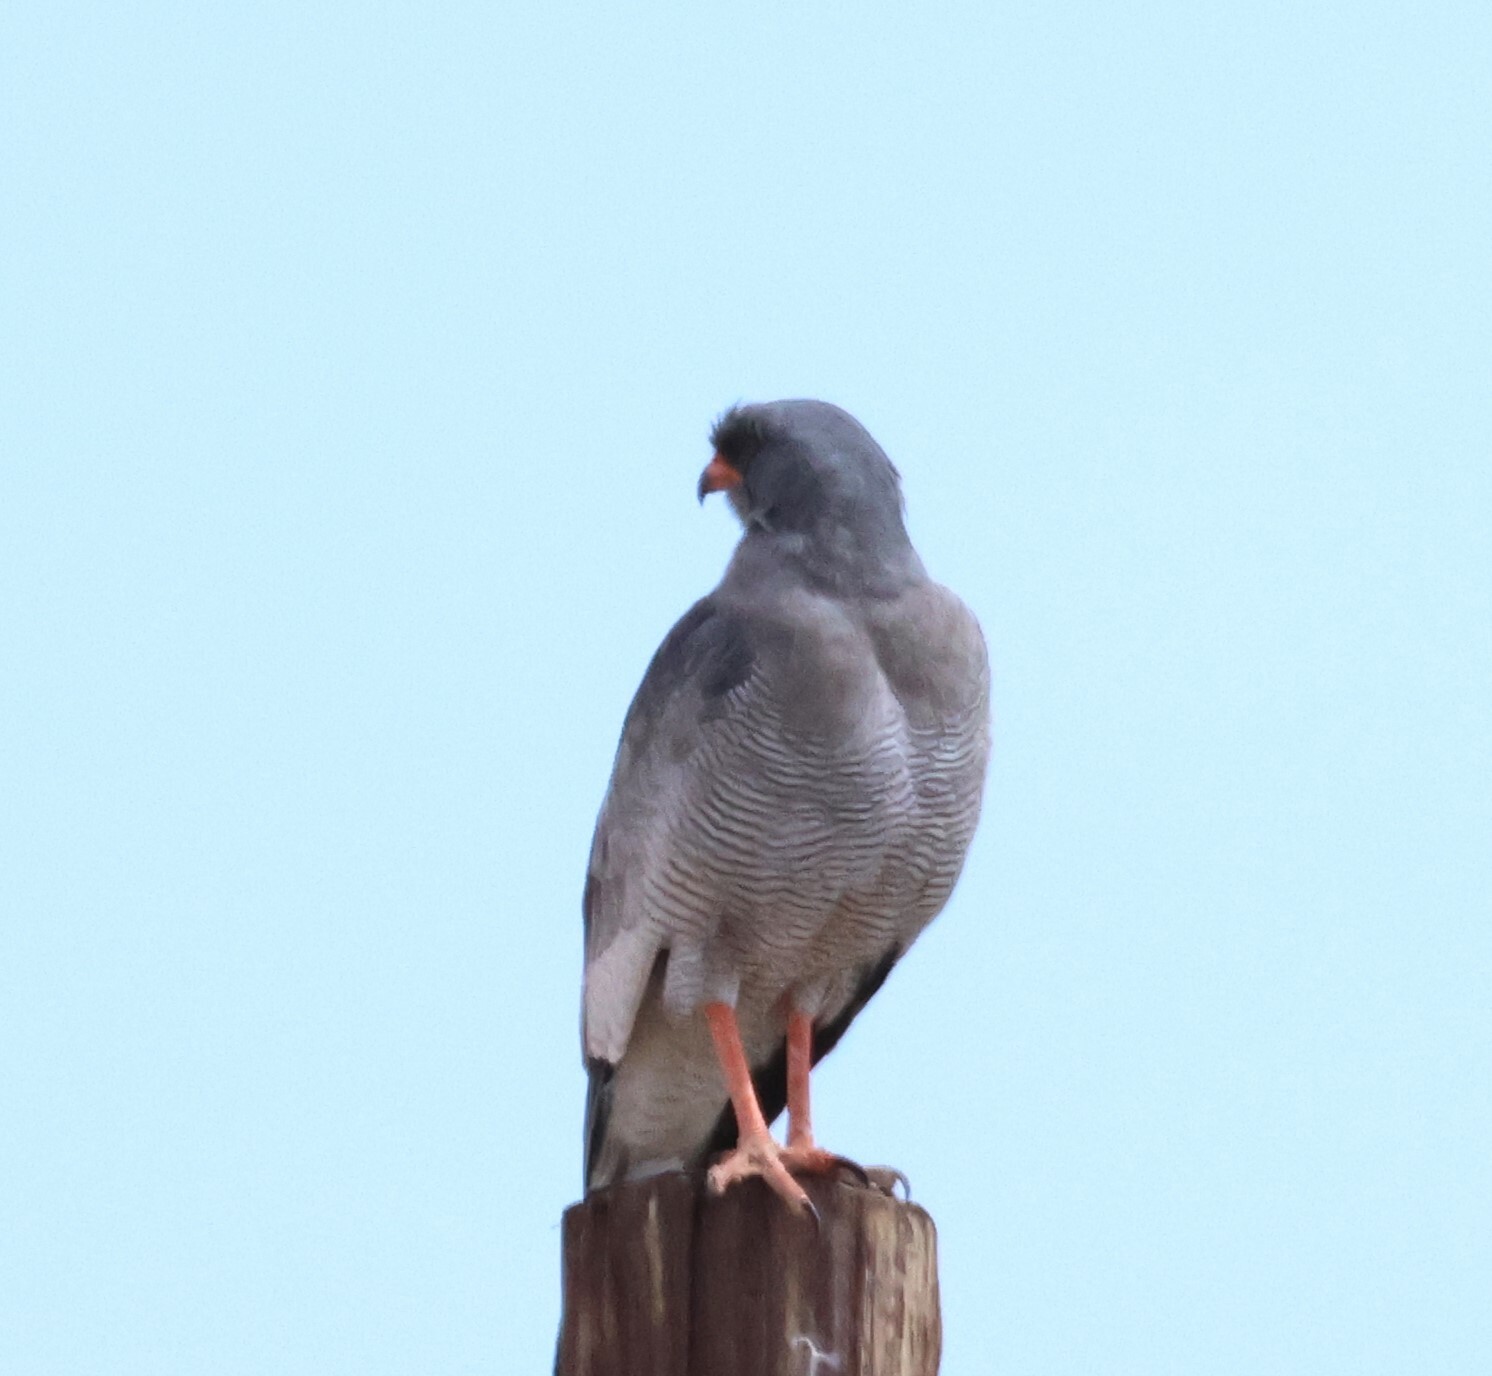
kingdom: Animalia
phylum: Chordata
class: Aves
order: Accipitriformes
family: Accipitridae
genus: Melierax
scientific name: Melierax canorus
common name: Pale chanting-goshawk
